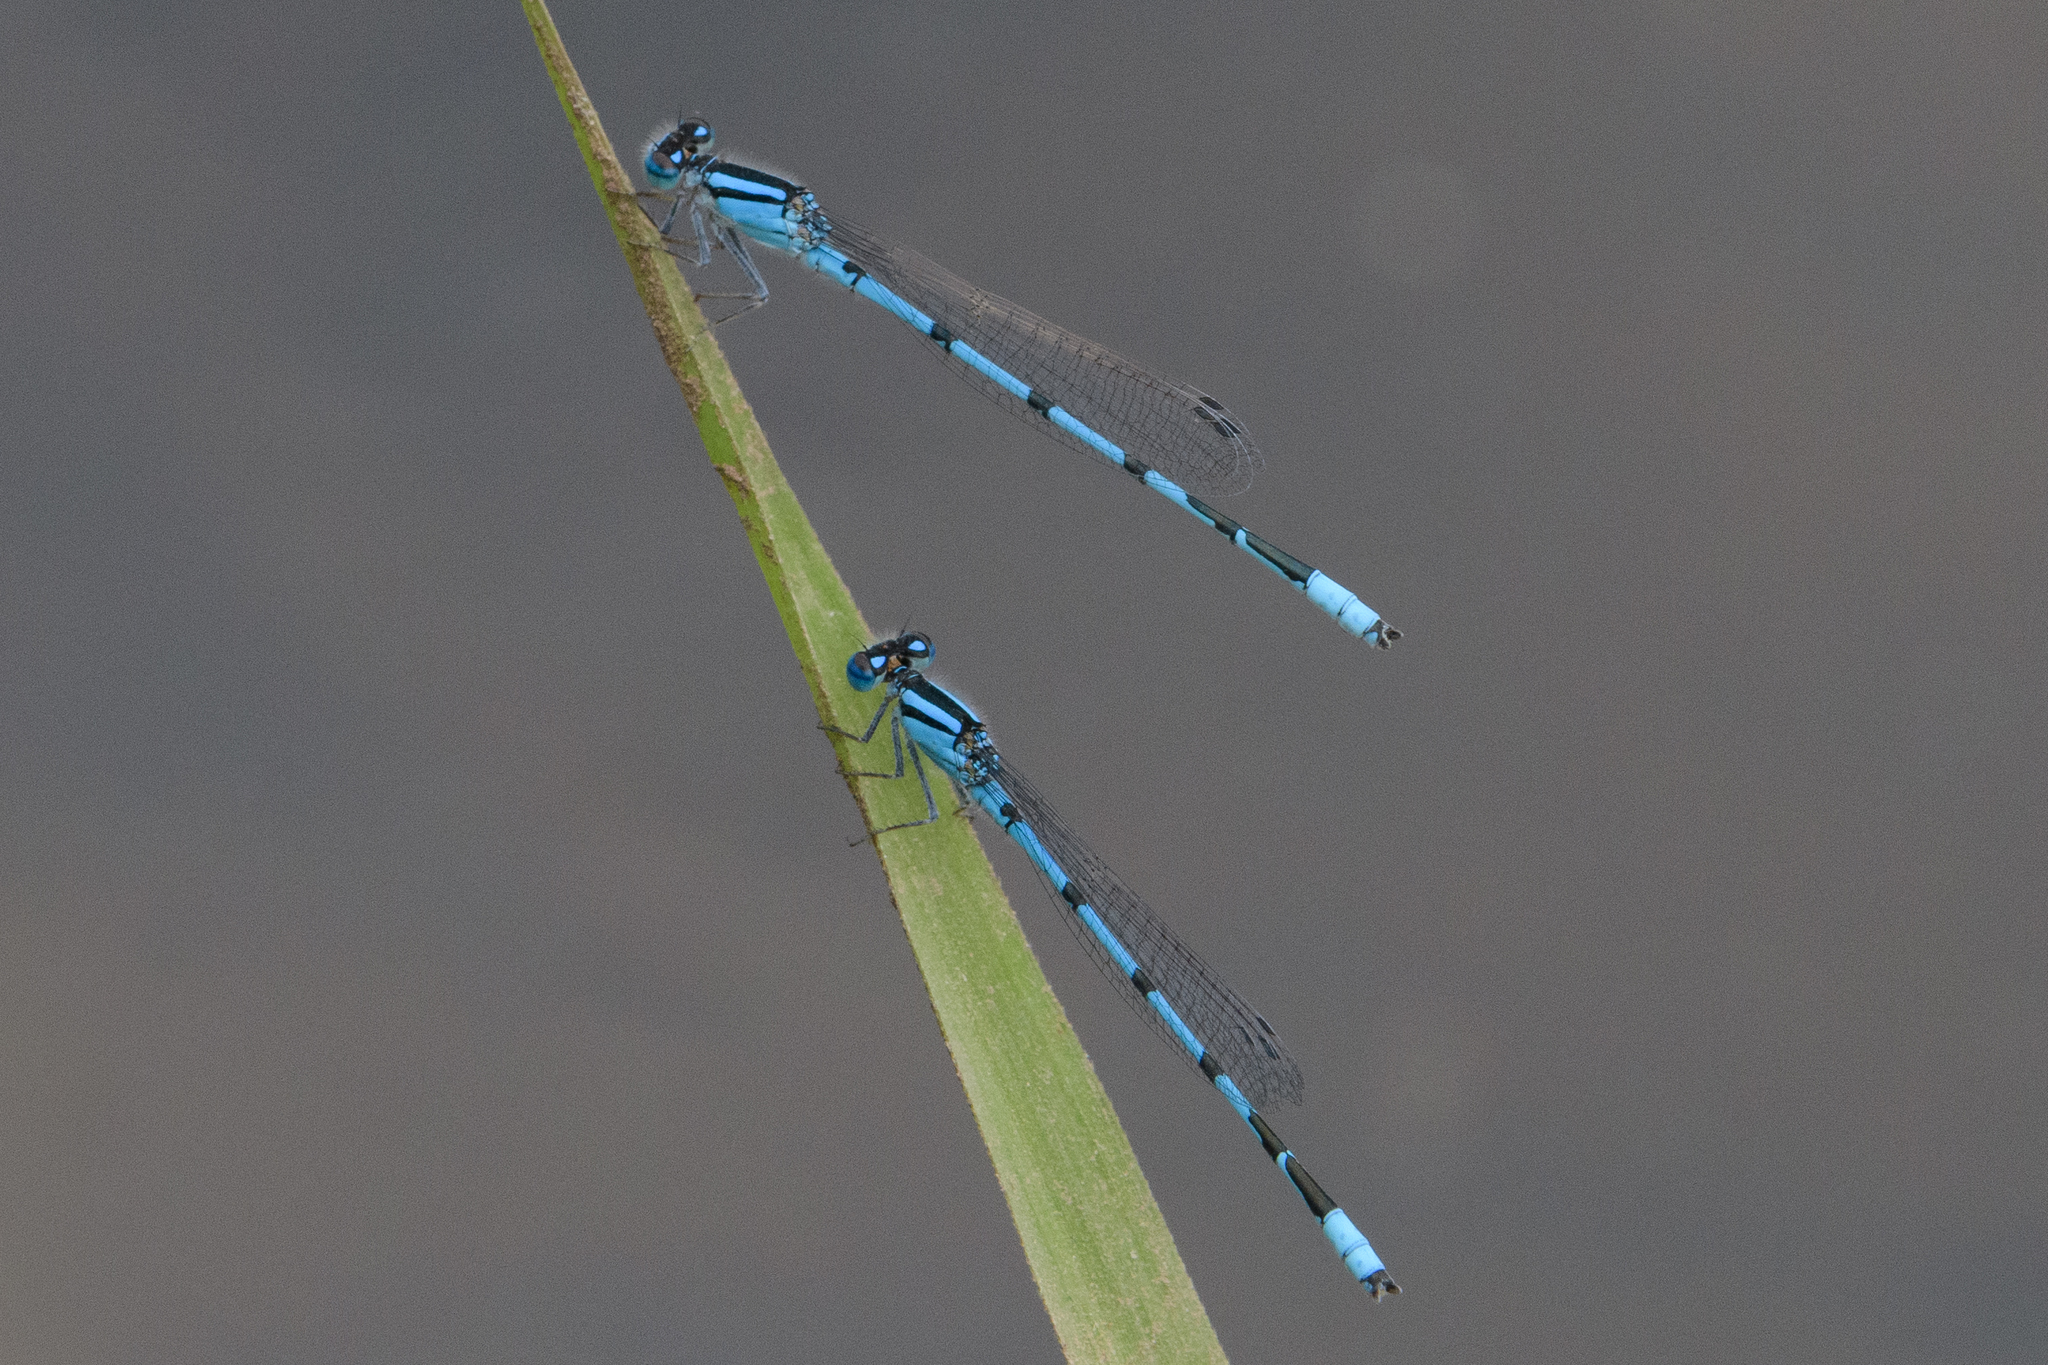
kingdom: Animalia
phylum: Arthropoda
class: Insecta
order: Odonata
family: Coenagrionidae
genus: Enallagma
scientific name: Enallagma civile
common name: Damselfly
